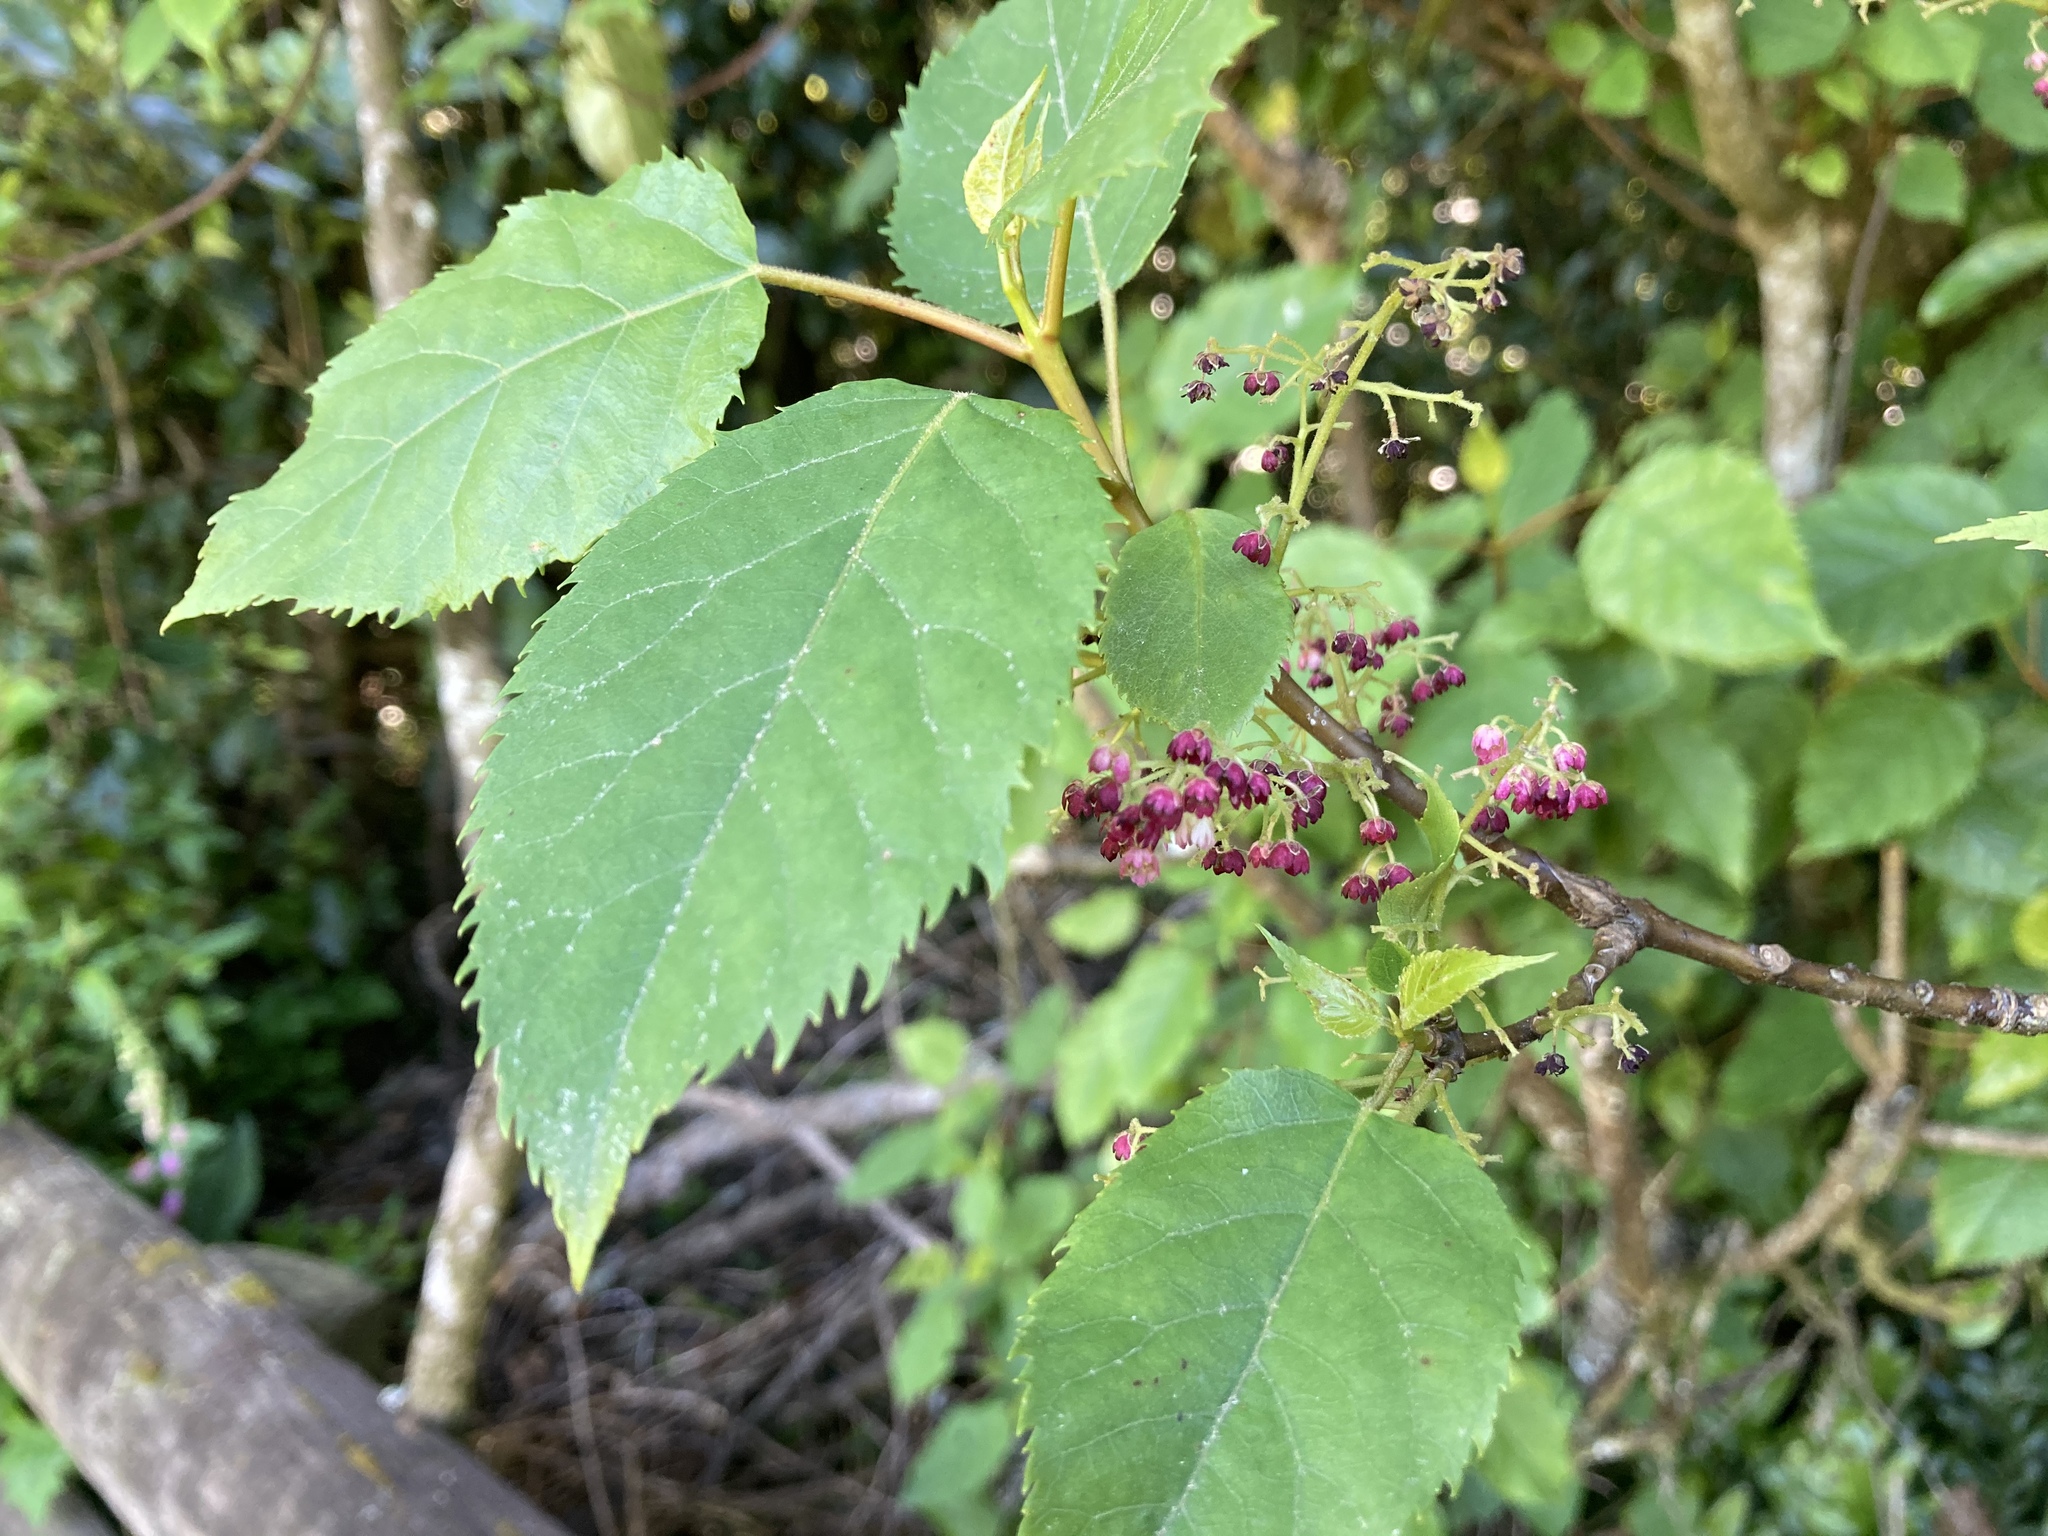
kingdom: Plantae
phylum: Tracheophyta
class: Magnoliopsida
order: Oxalidales
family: Elaeocarpaceae
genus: Aristotelia
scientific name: Aristotelia serrata
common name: New zealand wineberry
